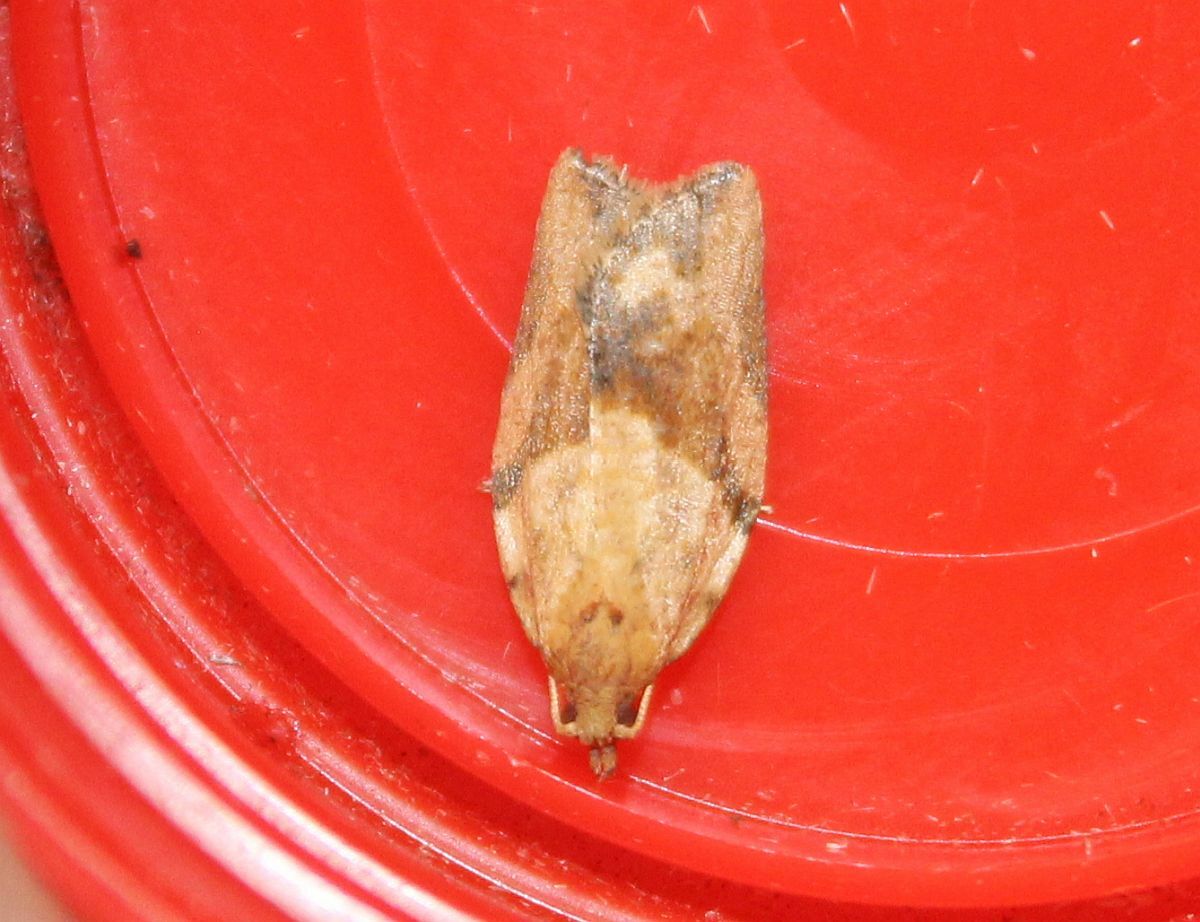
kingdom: Animalia
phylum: Arthropoda
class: Insecta
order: Lepidoptera
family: Tortricidae
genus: Epiphyas
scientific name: Epiphyas postvittana
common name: Light brown apple moth
